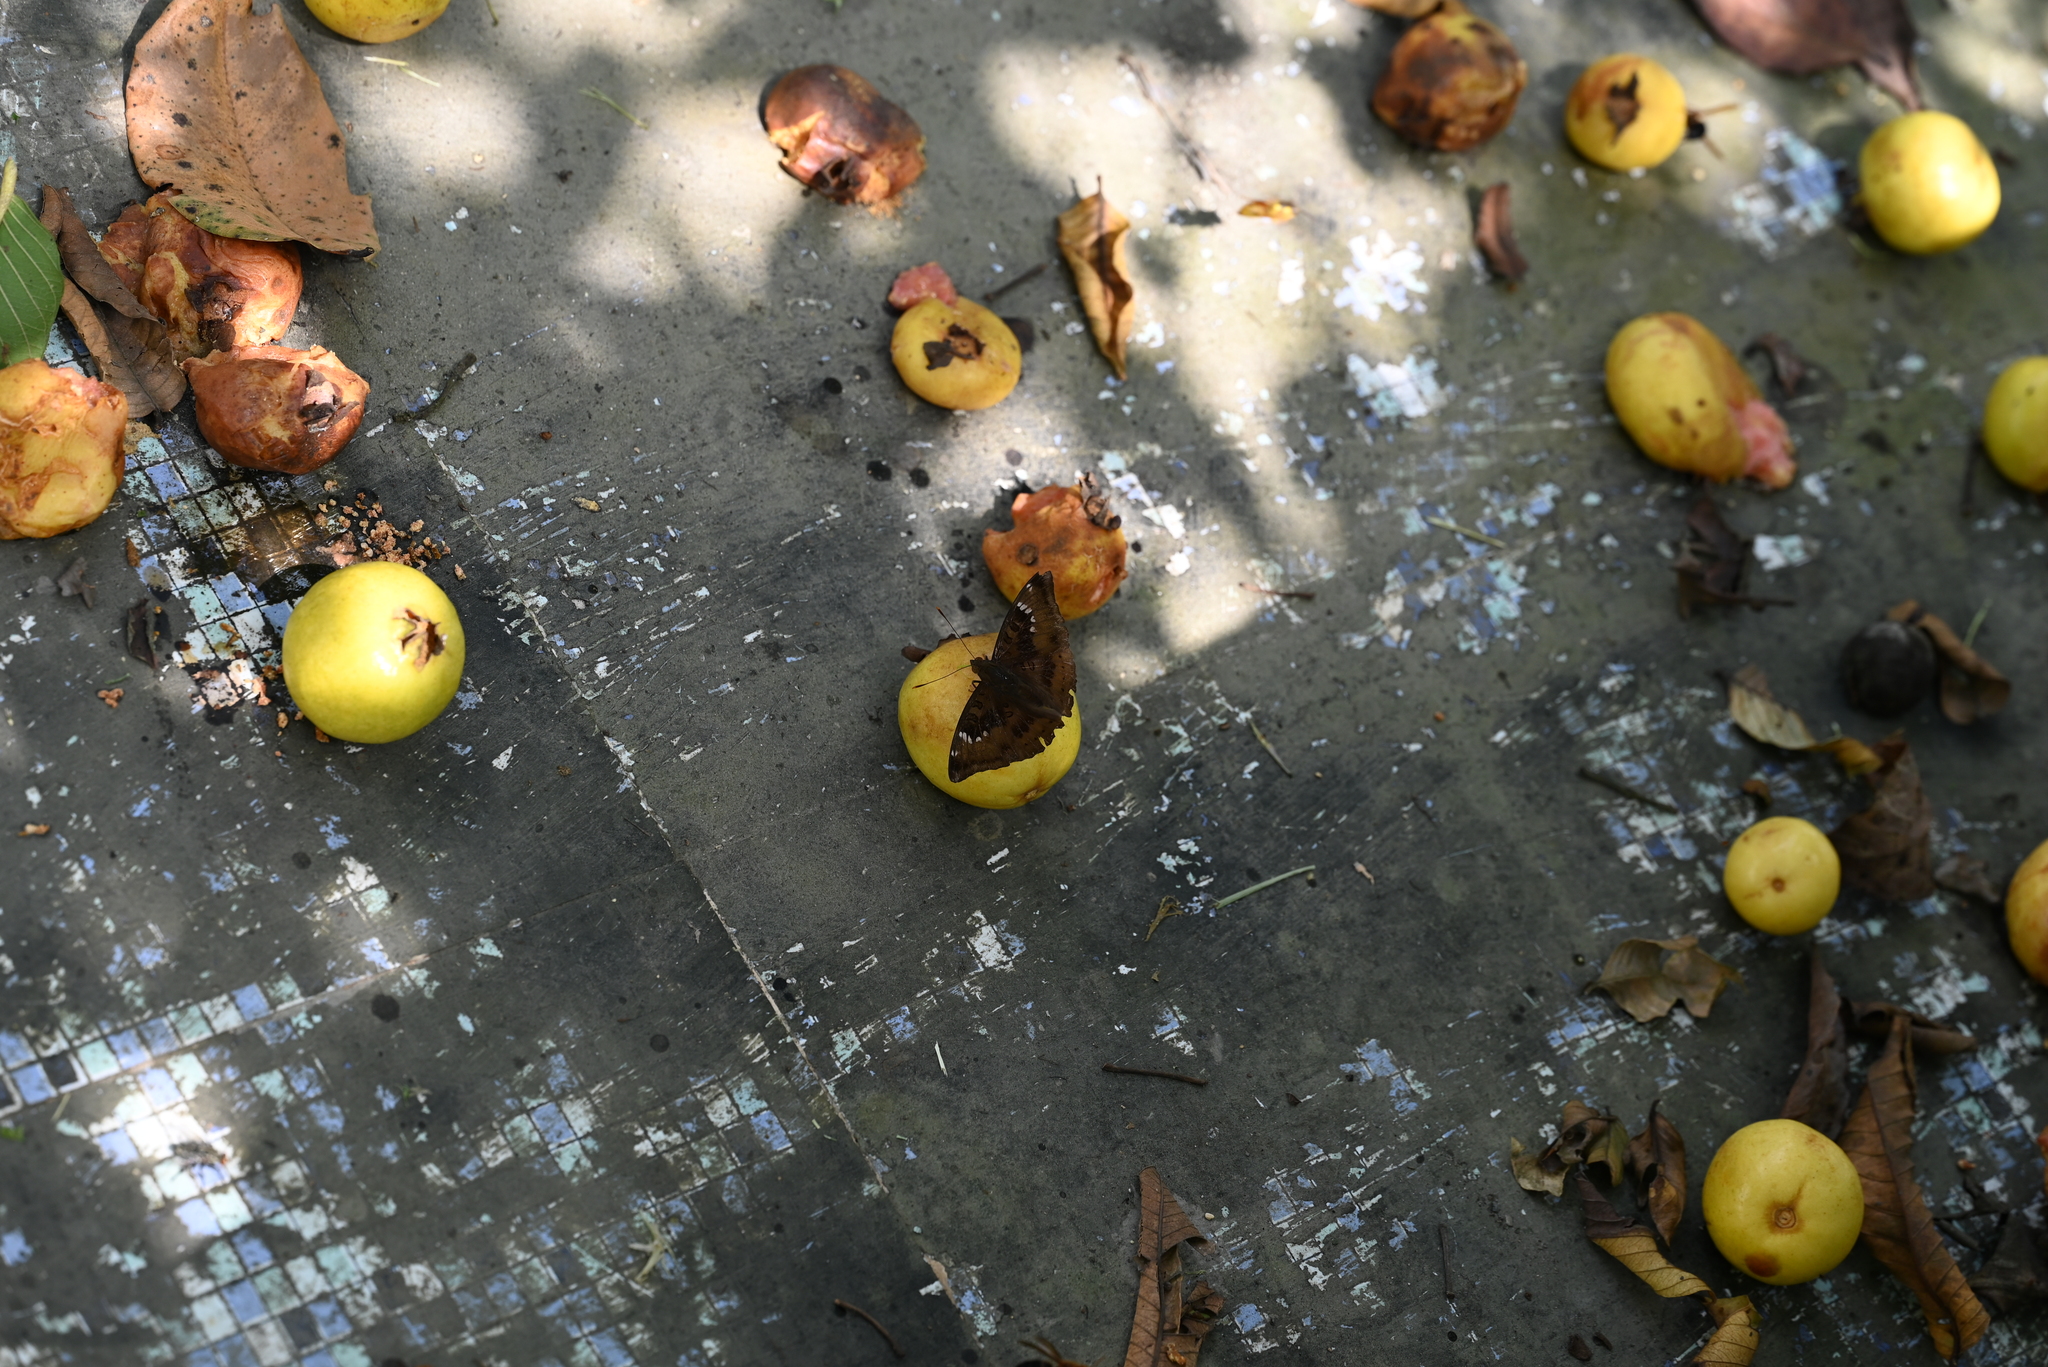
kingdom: Animalia
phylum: Arthropoda
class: Insecta
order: Lepidoptera
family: Nymphalidae
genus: Euthalia
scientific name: Euthalia aconthea
